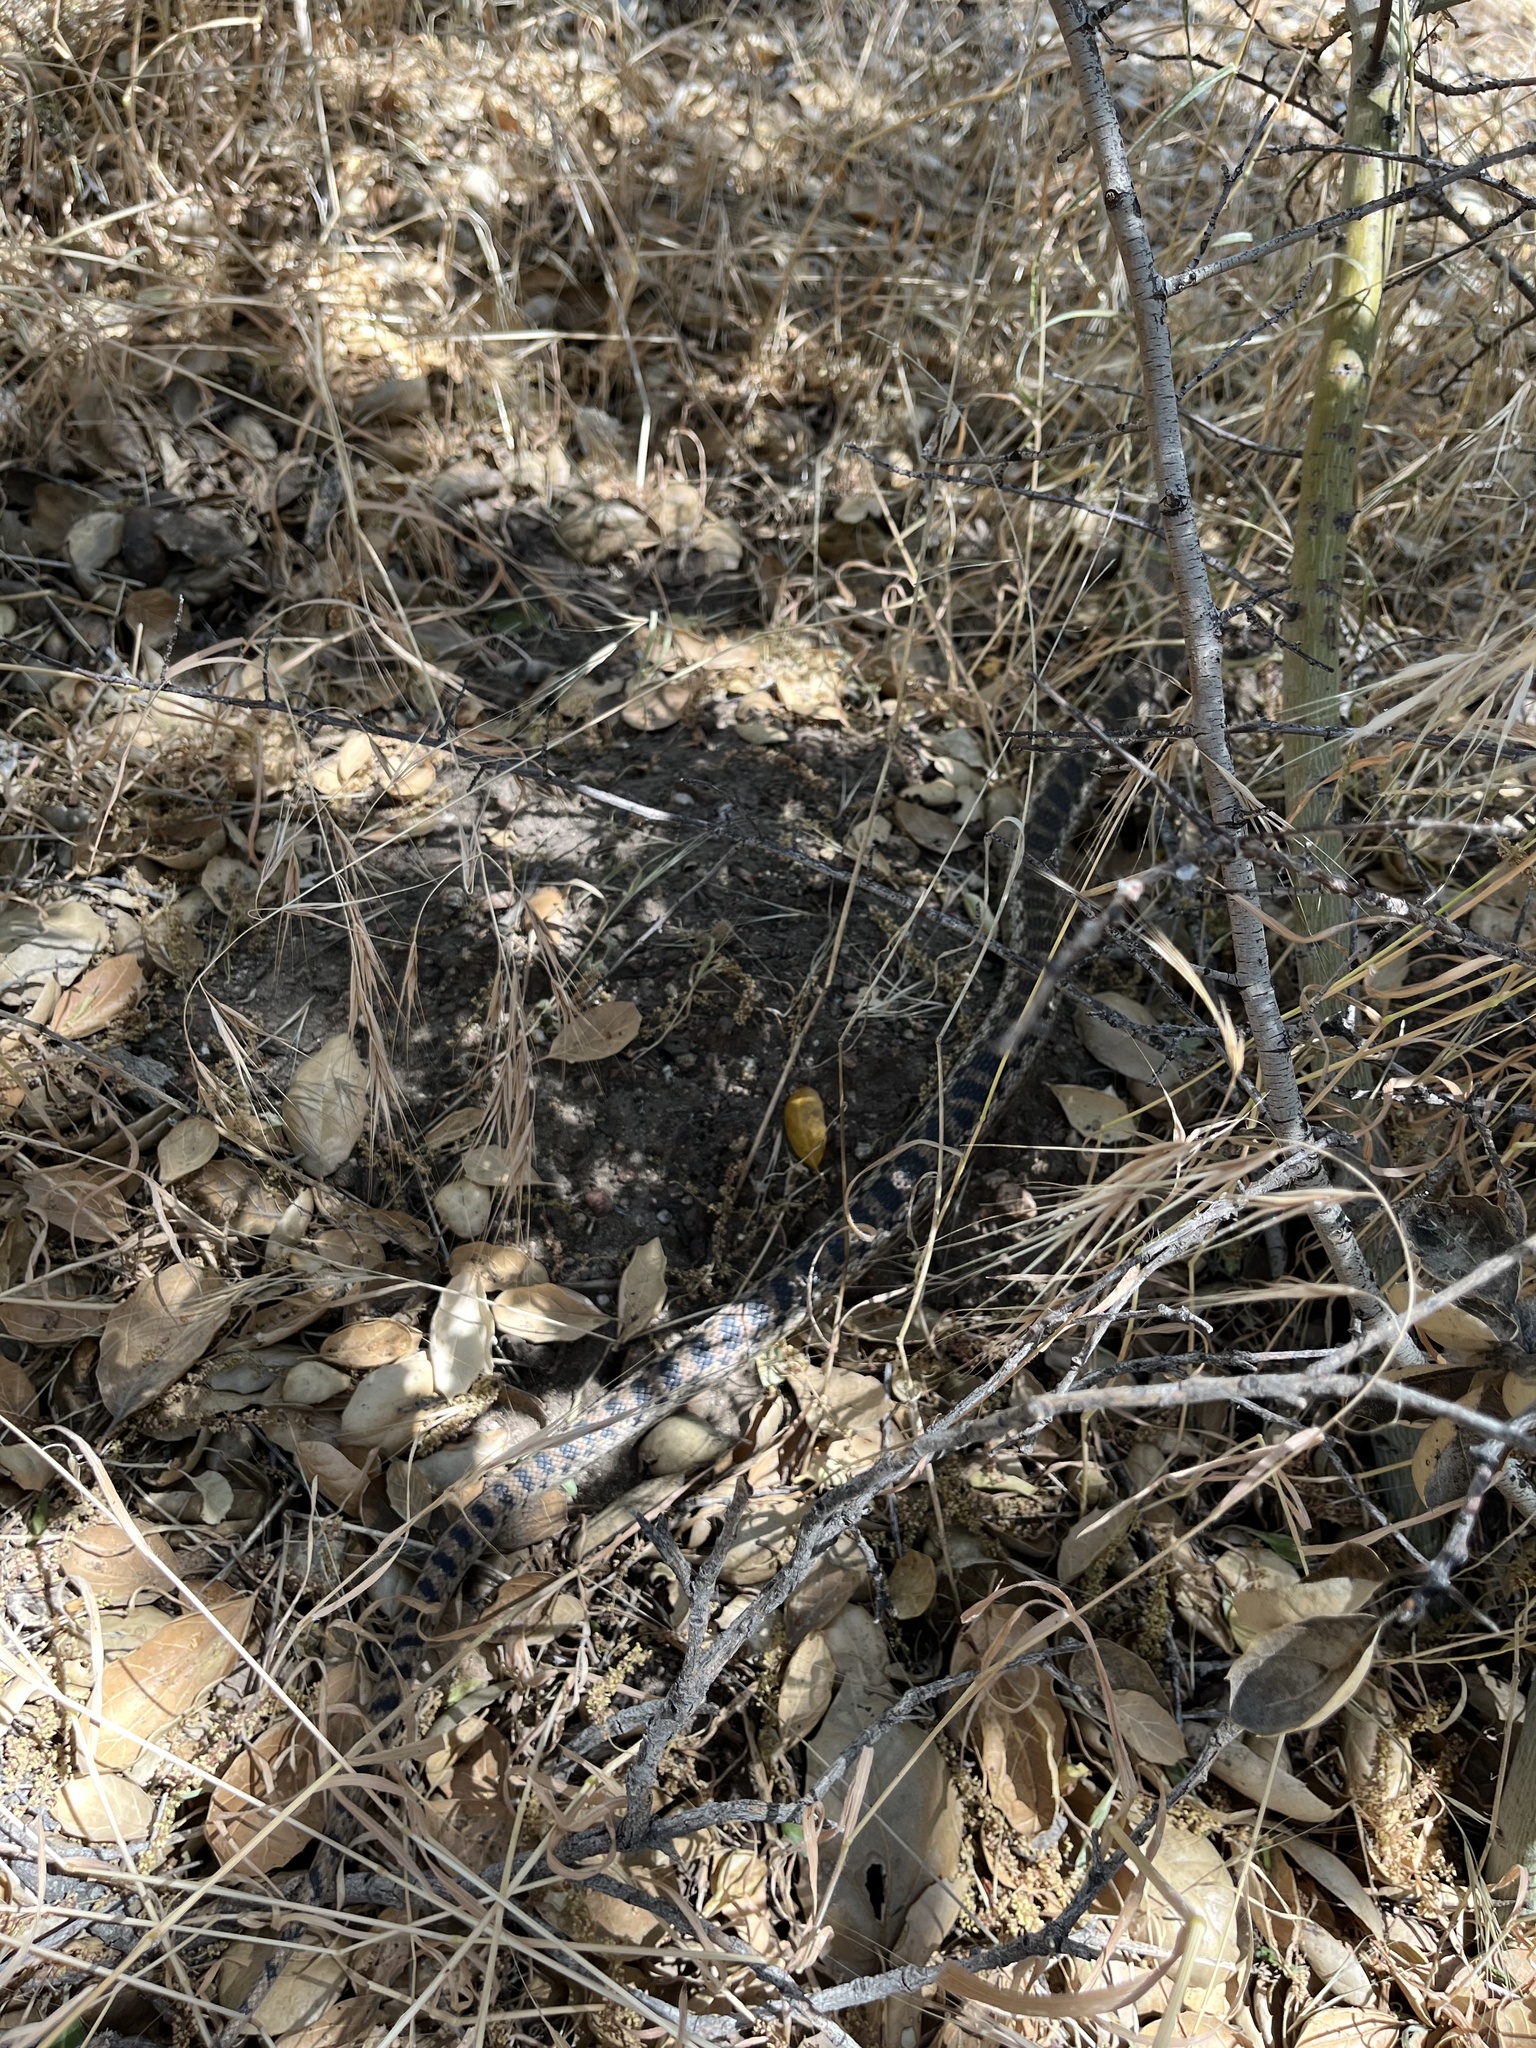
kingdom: Animalia
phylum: Chordata
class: Squamata
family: Colubridae
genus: Pituophis
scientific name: Pituophis catenifer
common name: Gopher snake
